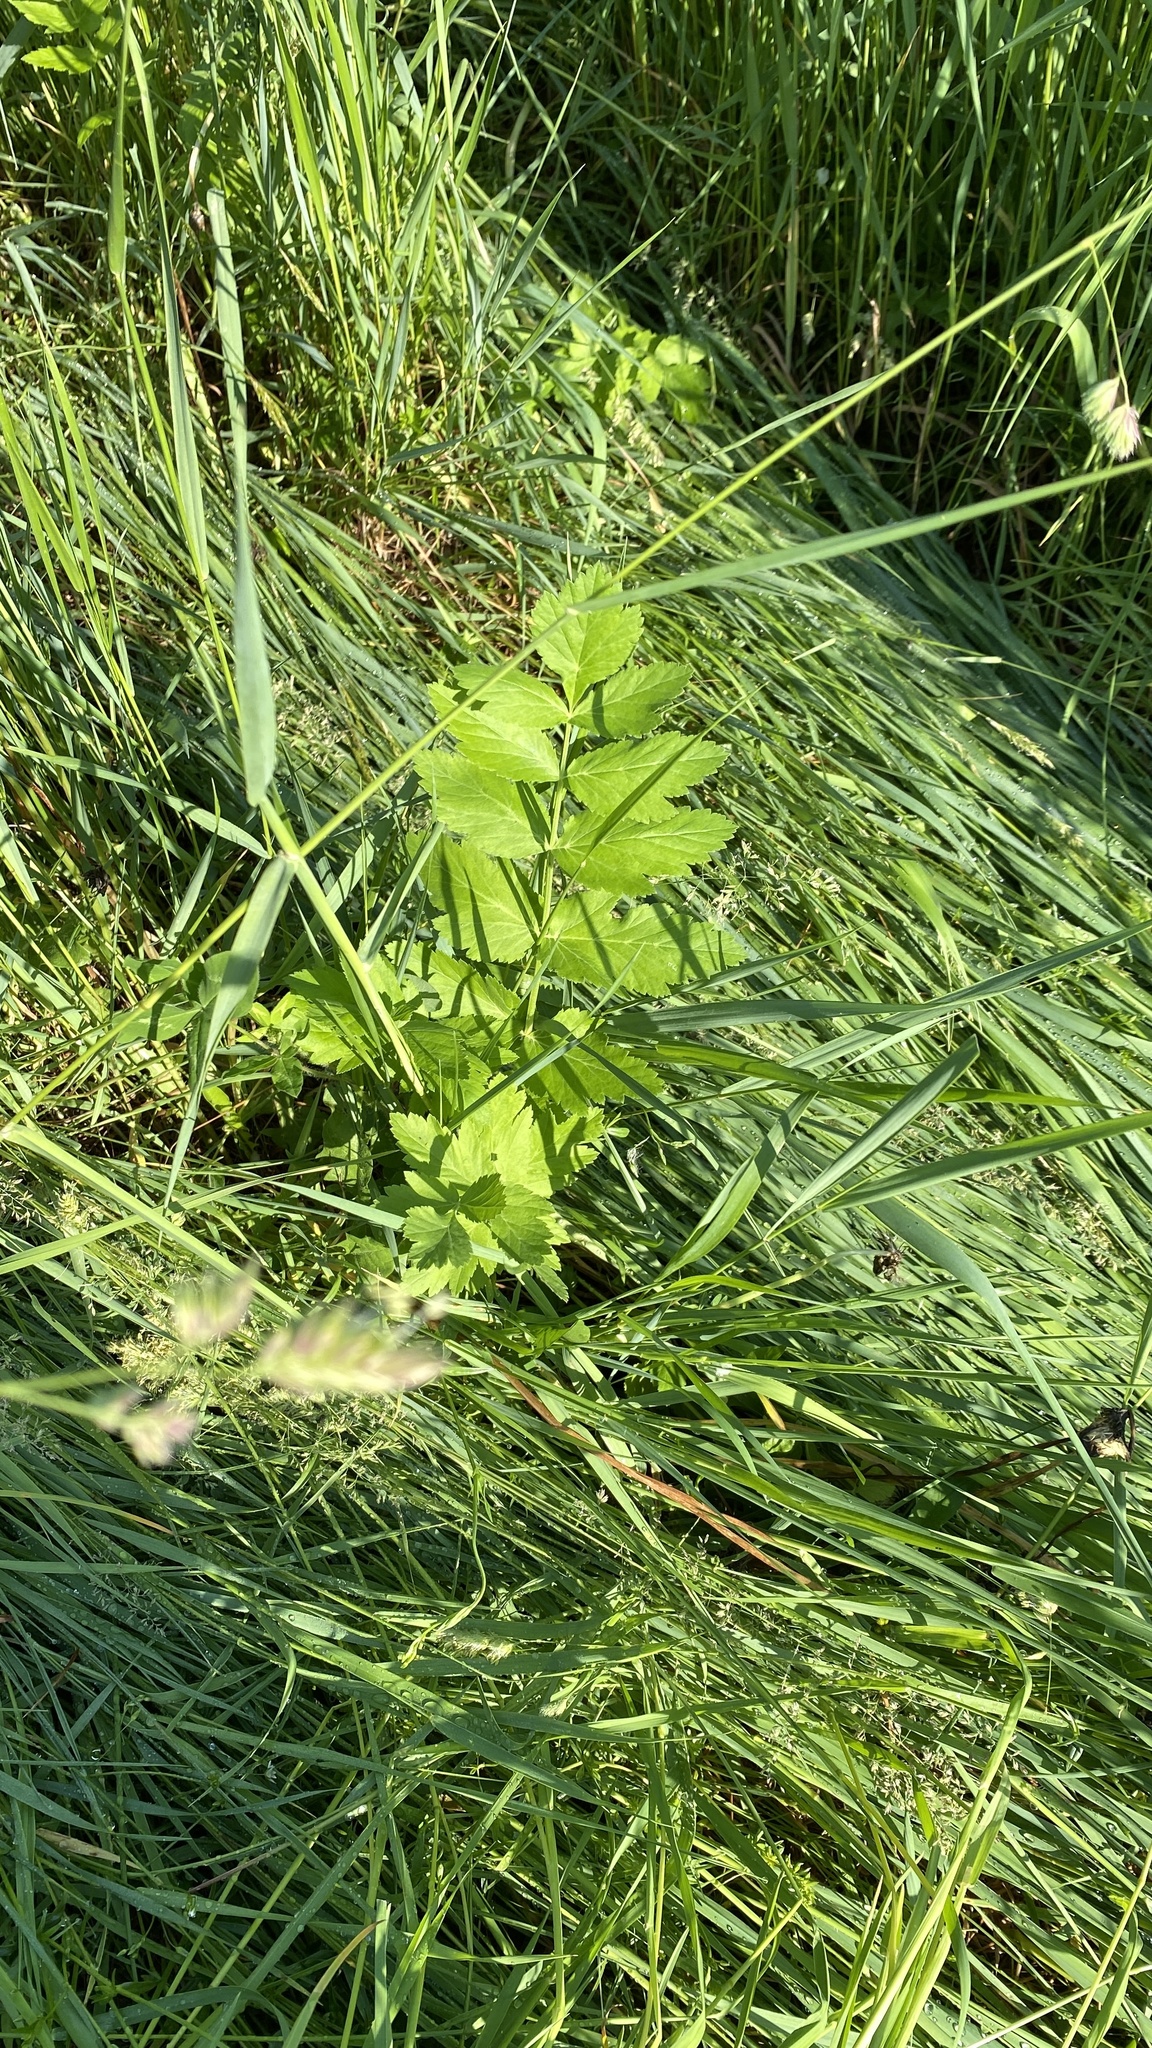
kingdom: Plantae
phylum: Tracheophyta
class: Magnoliopsida
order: Apiales
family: Apiaceae
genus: Pastinaca
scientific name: Pastinaca sativa
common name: Wild parsnip
